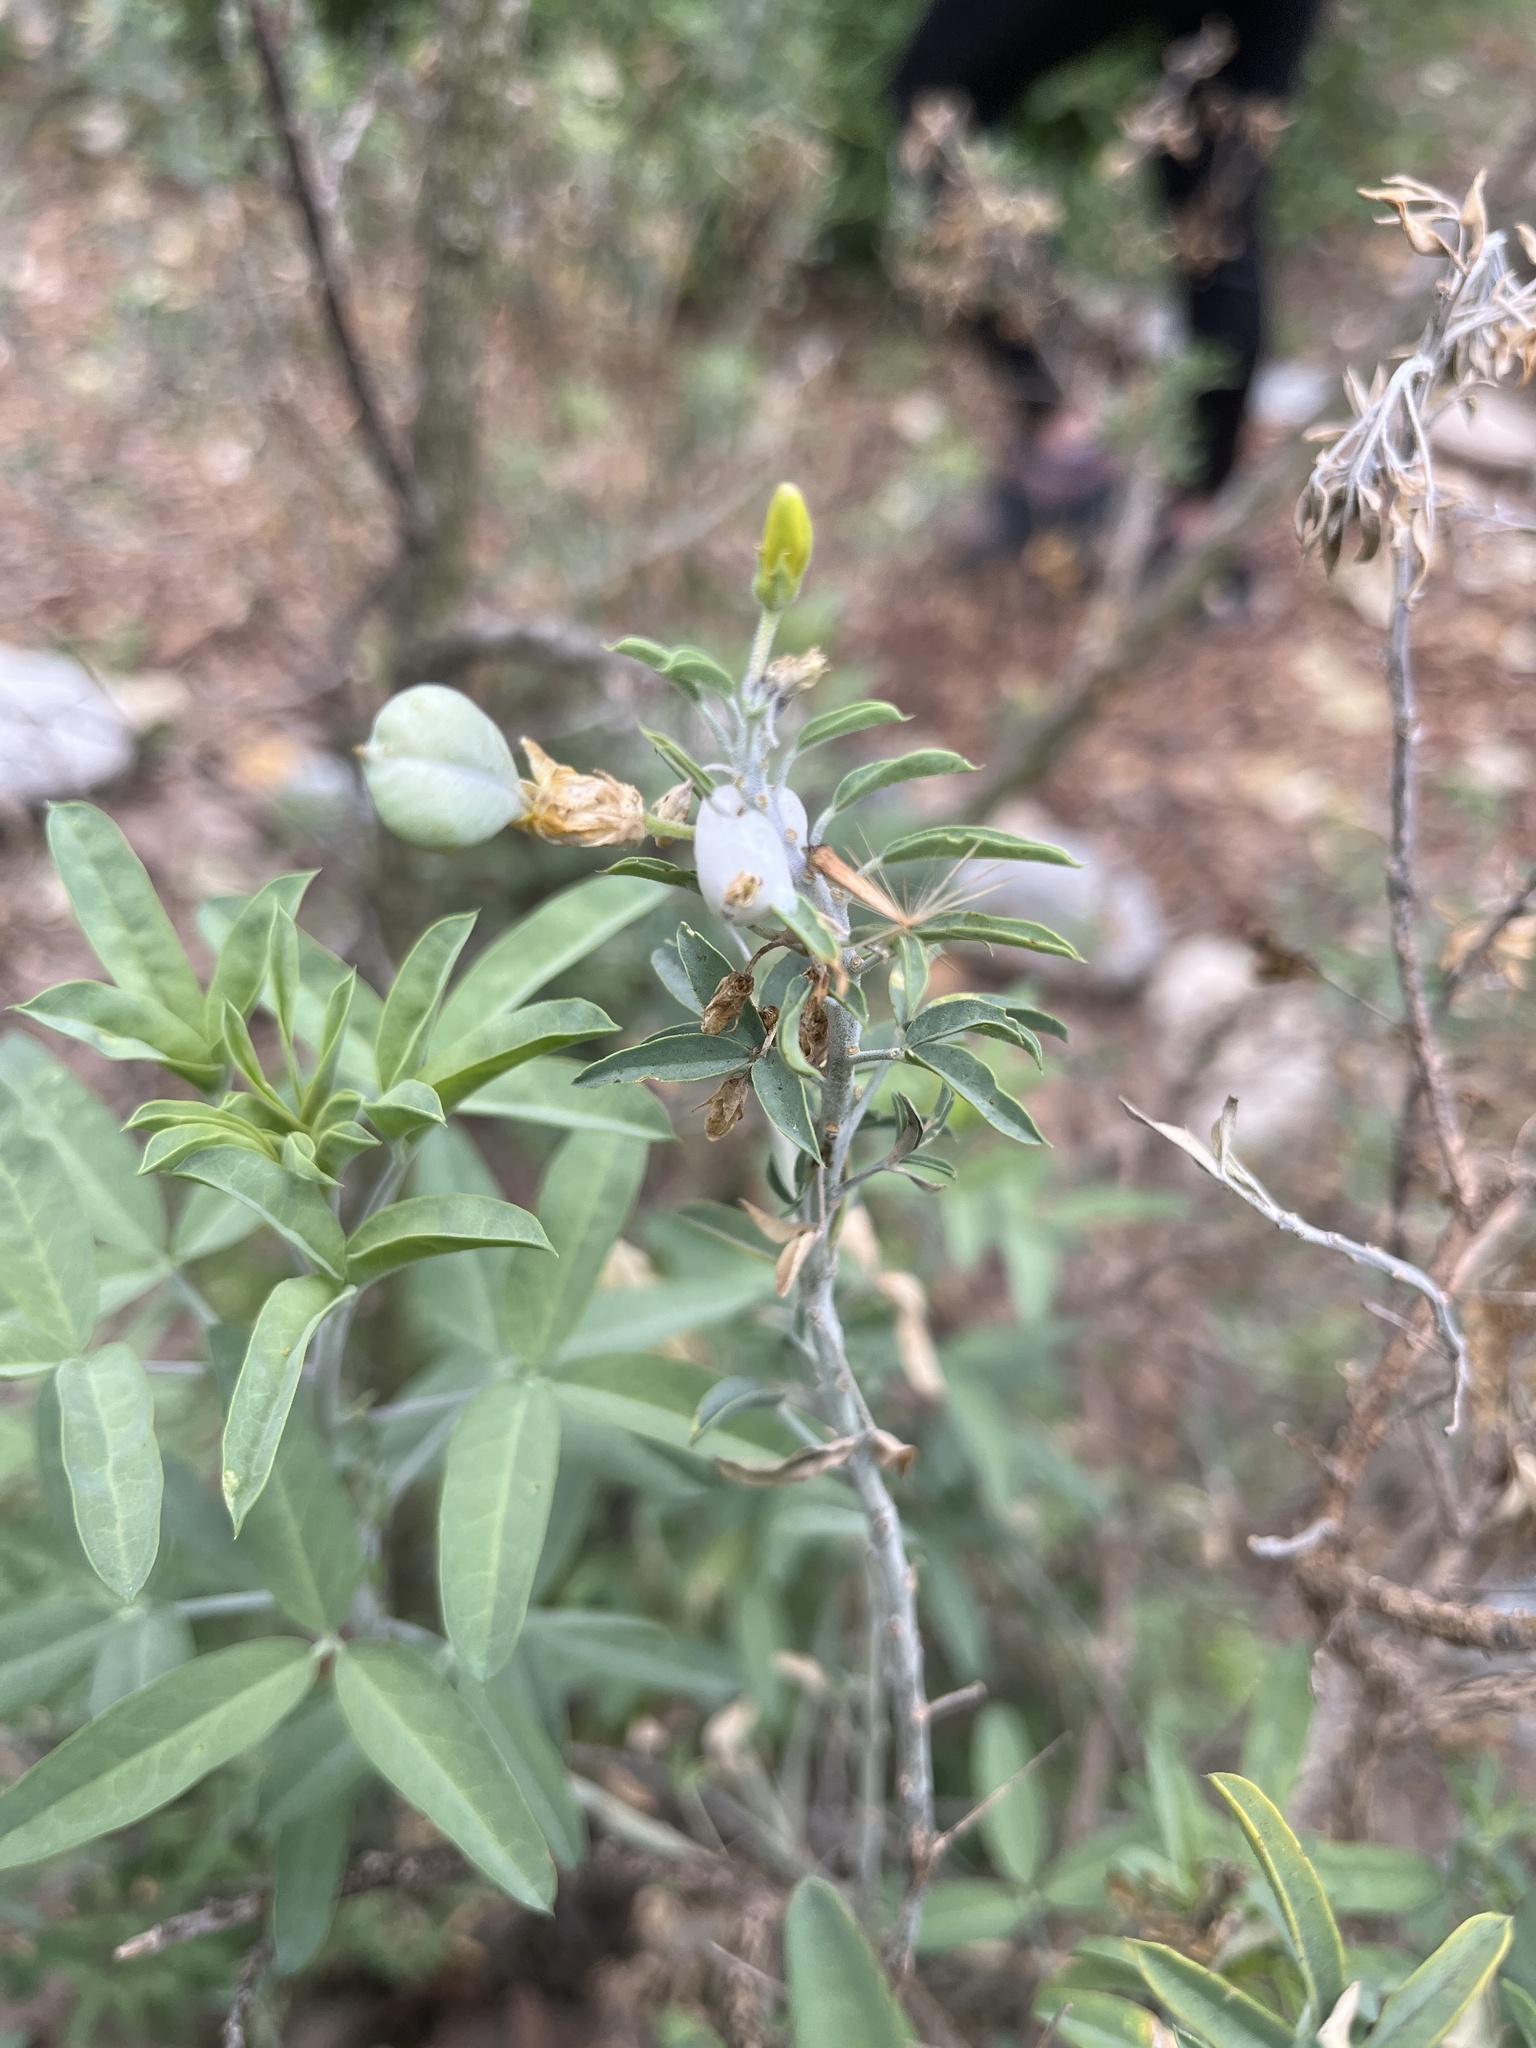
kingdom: Plantae
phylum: Tracheophyta
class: Magnoliopsida
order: Brassicales
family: Cleomaceae
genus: Cleomella
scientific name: Cleomella arborea
